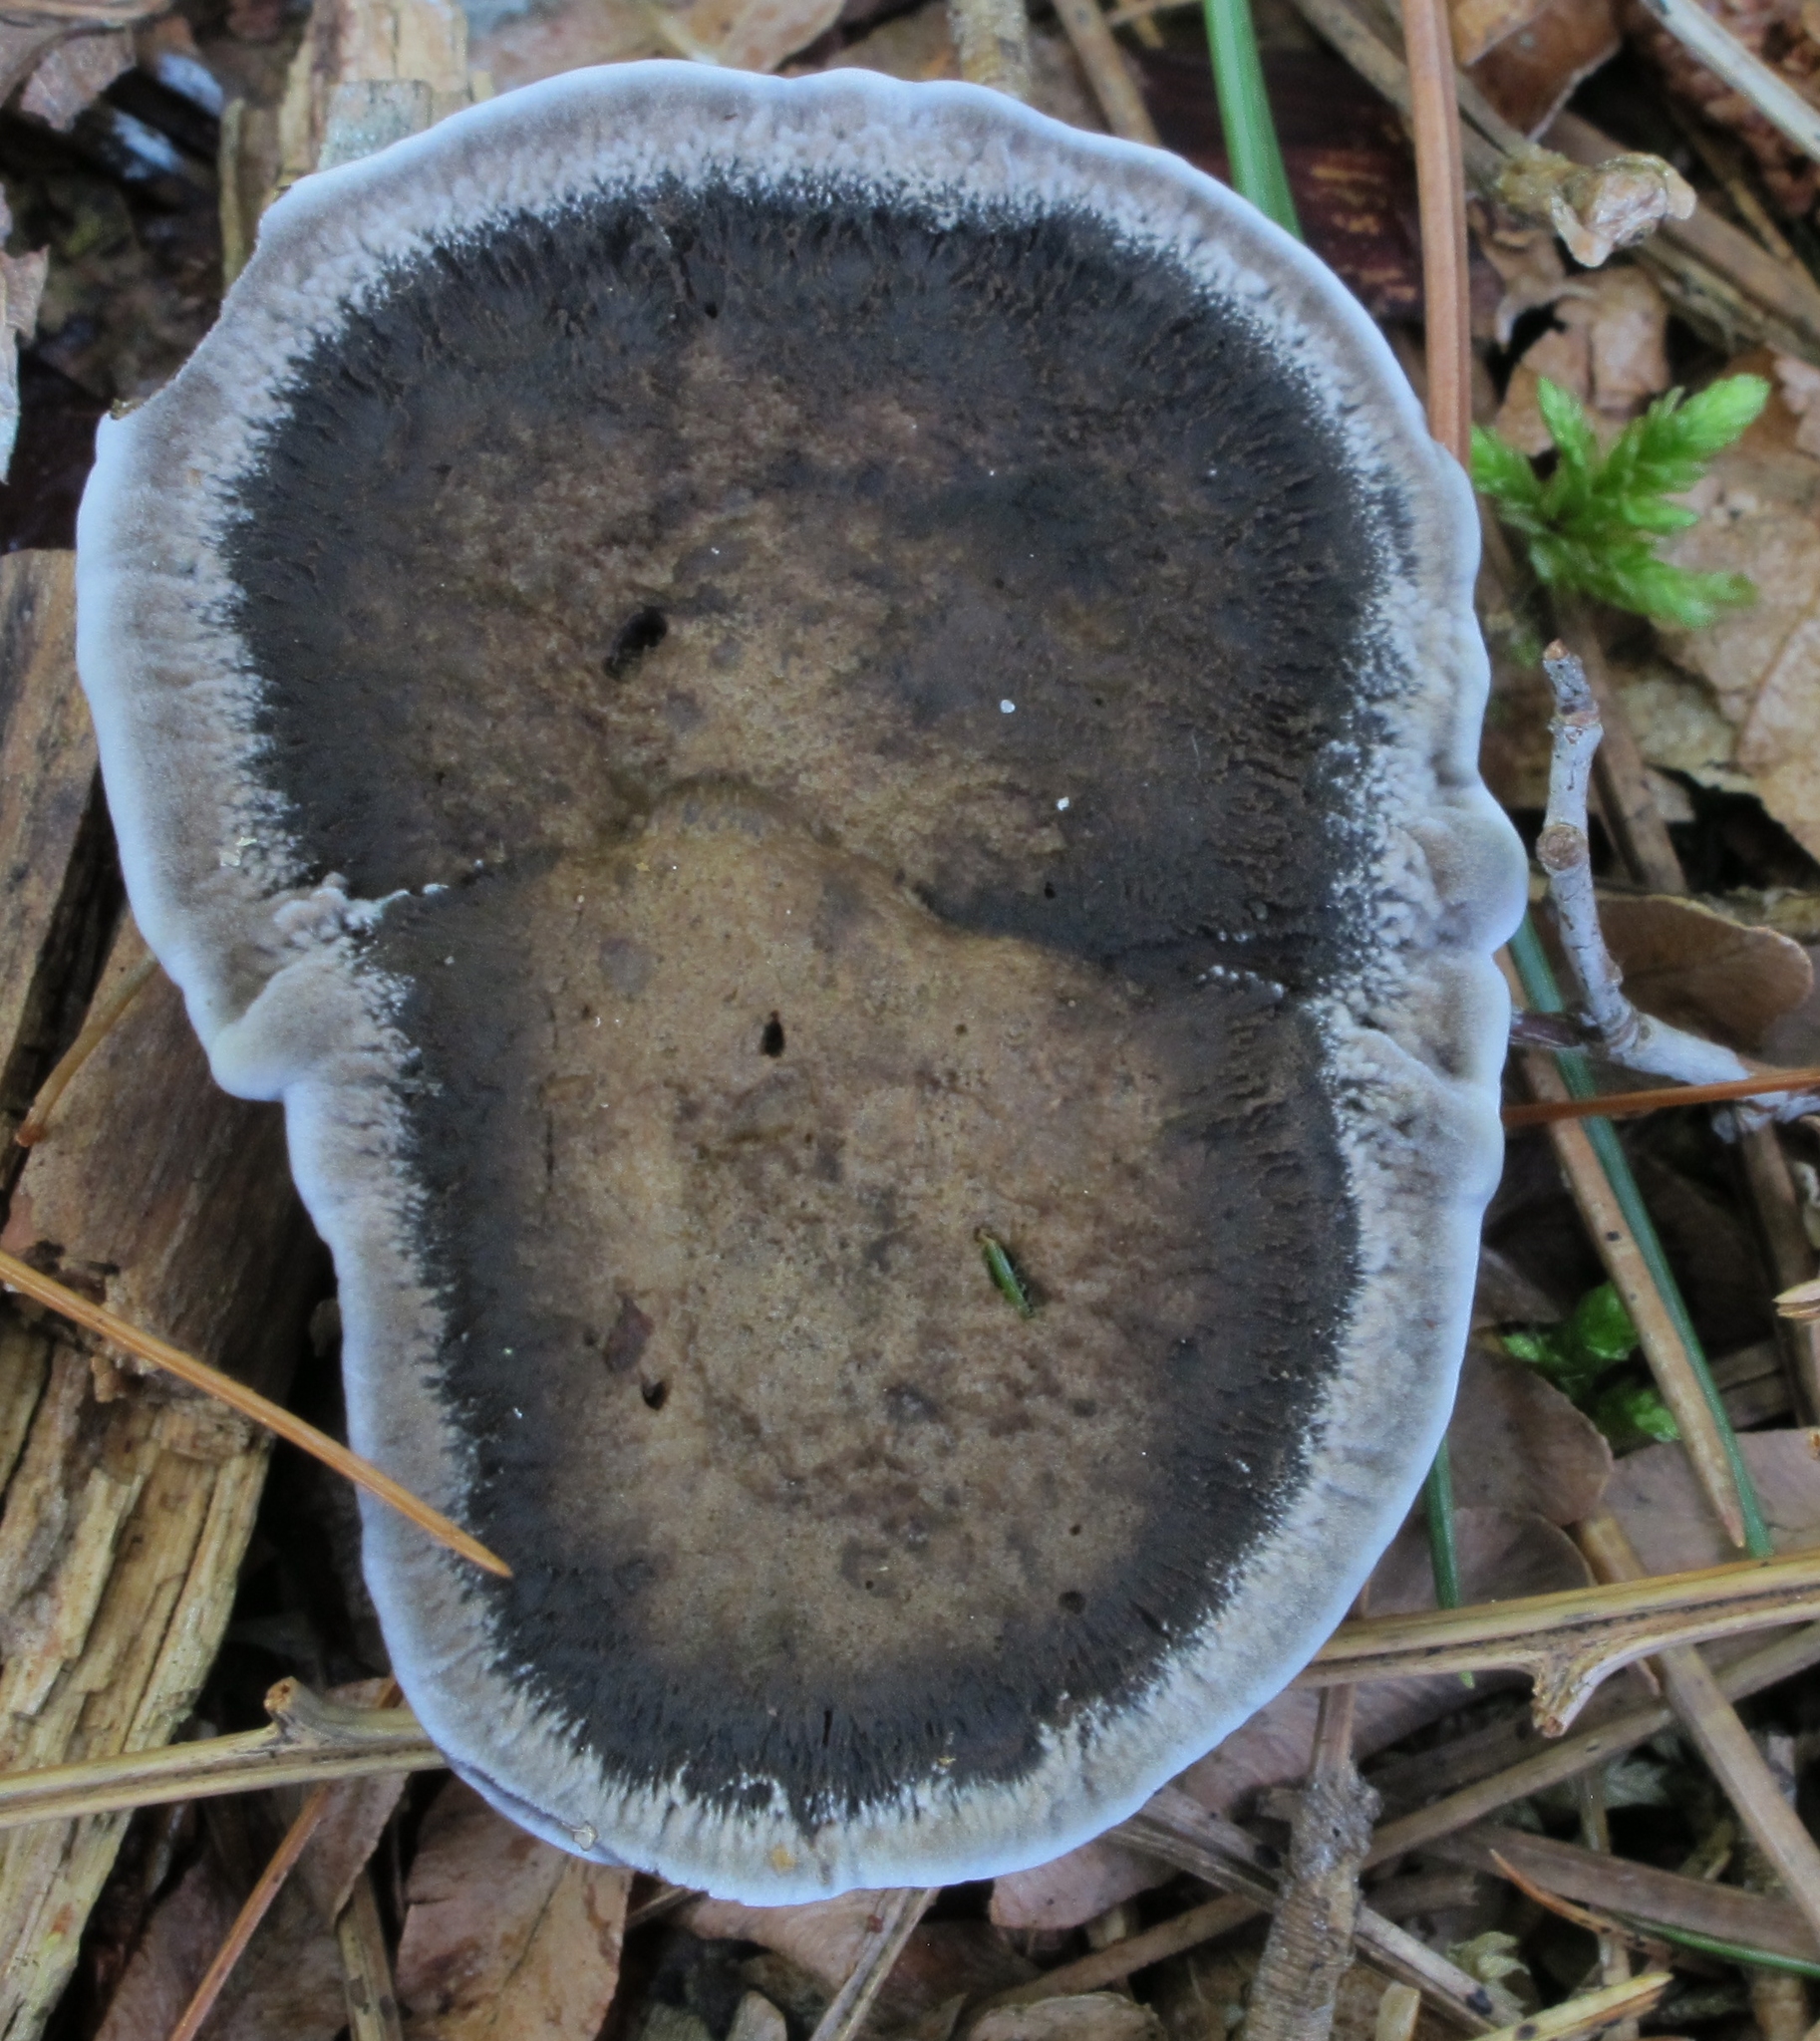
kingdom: Fungi
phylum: Basidiomycota
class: Agaricomycetes
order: Thelephorales
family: Thelephoraceae
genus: Phellodon
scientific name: Phellodon niger
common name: Black tooth
